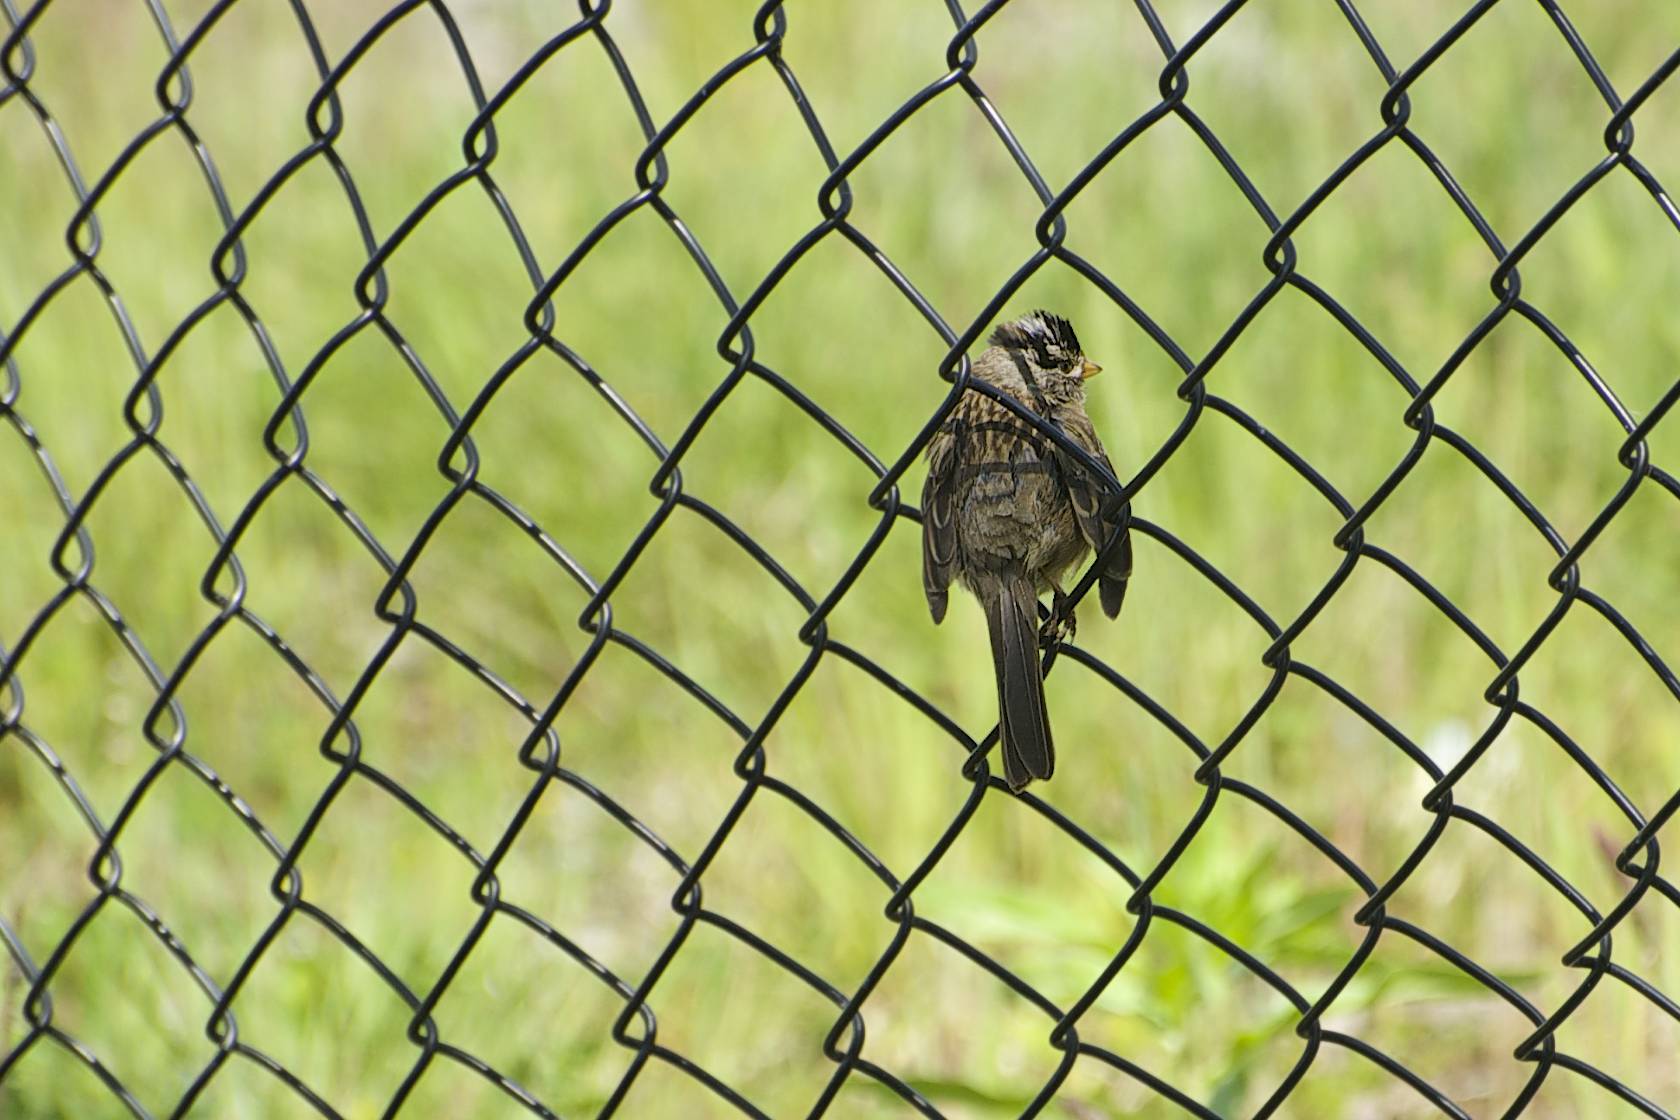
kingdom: Animalia
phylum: Chordata
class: Aves
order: Passeriformes
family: Passerellidae
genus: Zonotrichia
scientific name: Zonotrichia leucophrys
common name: White-crowned sparrow
